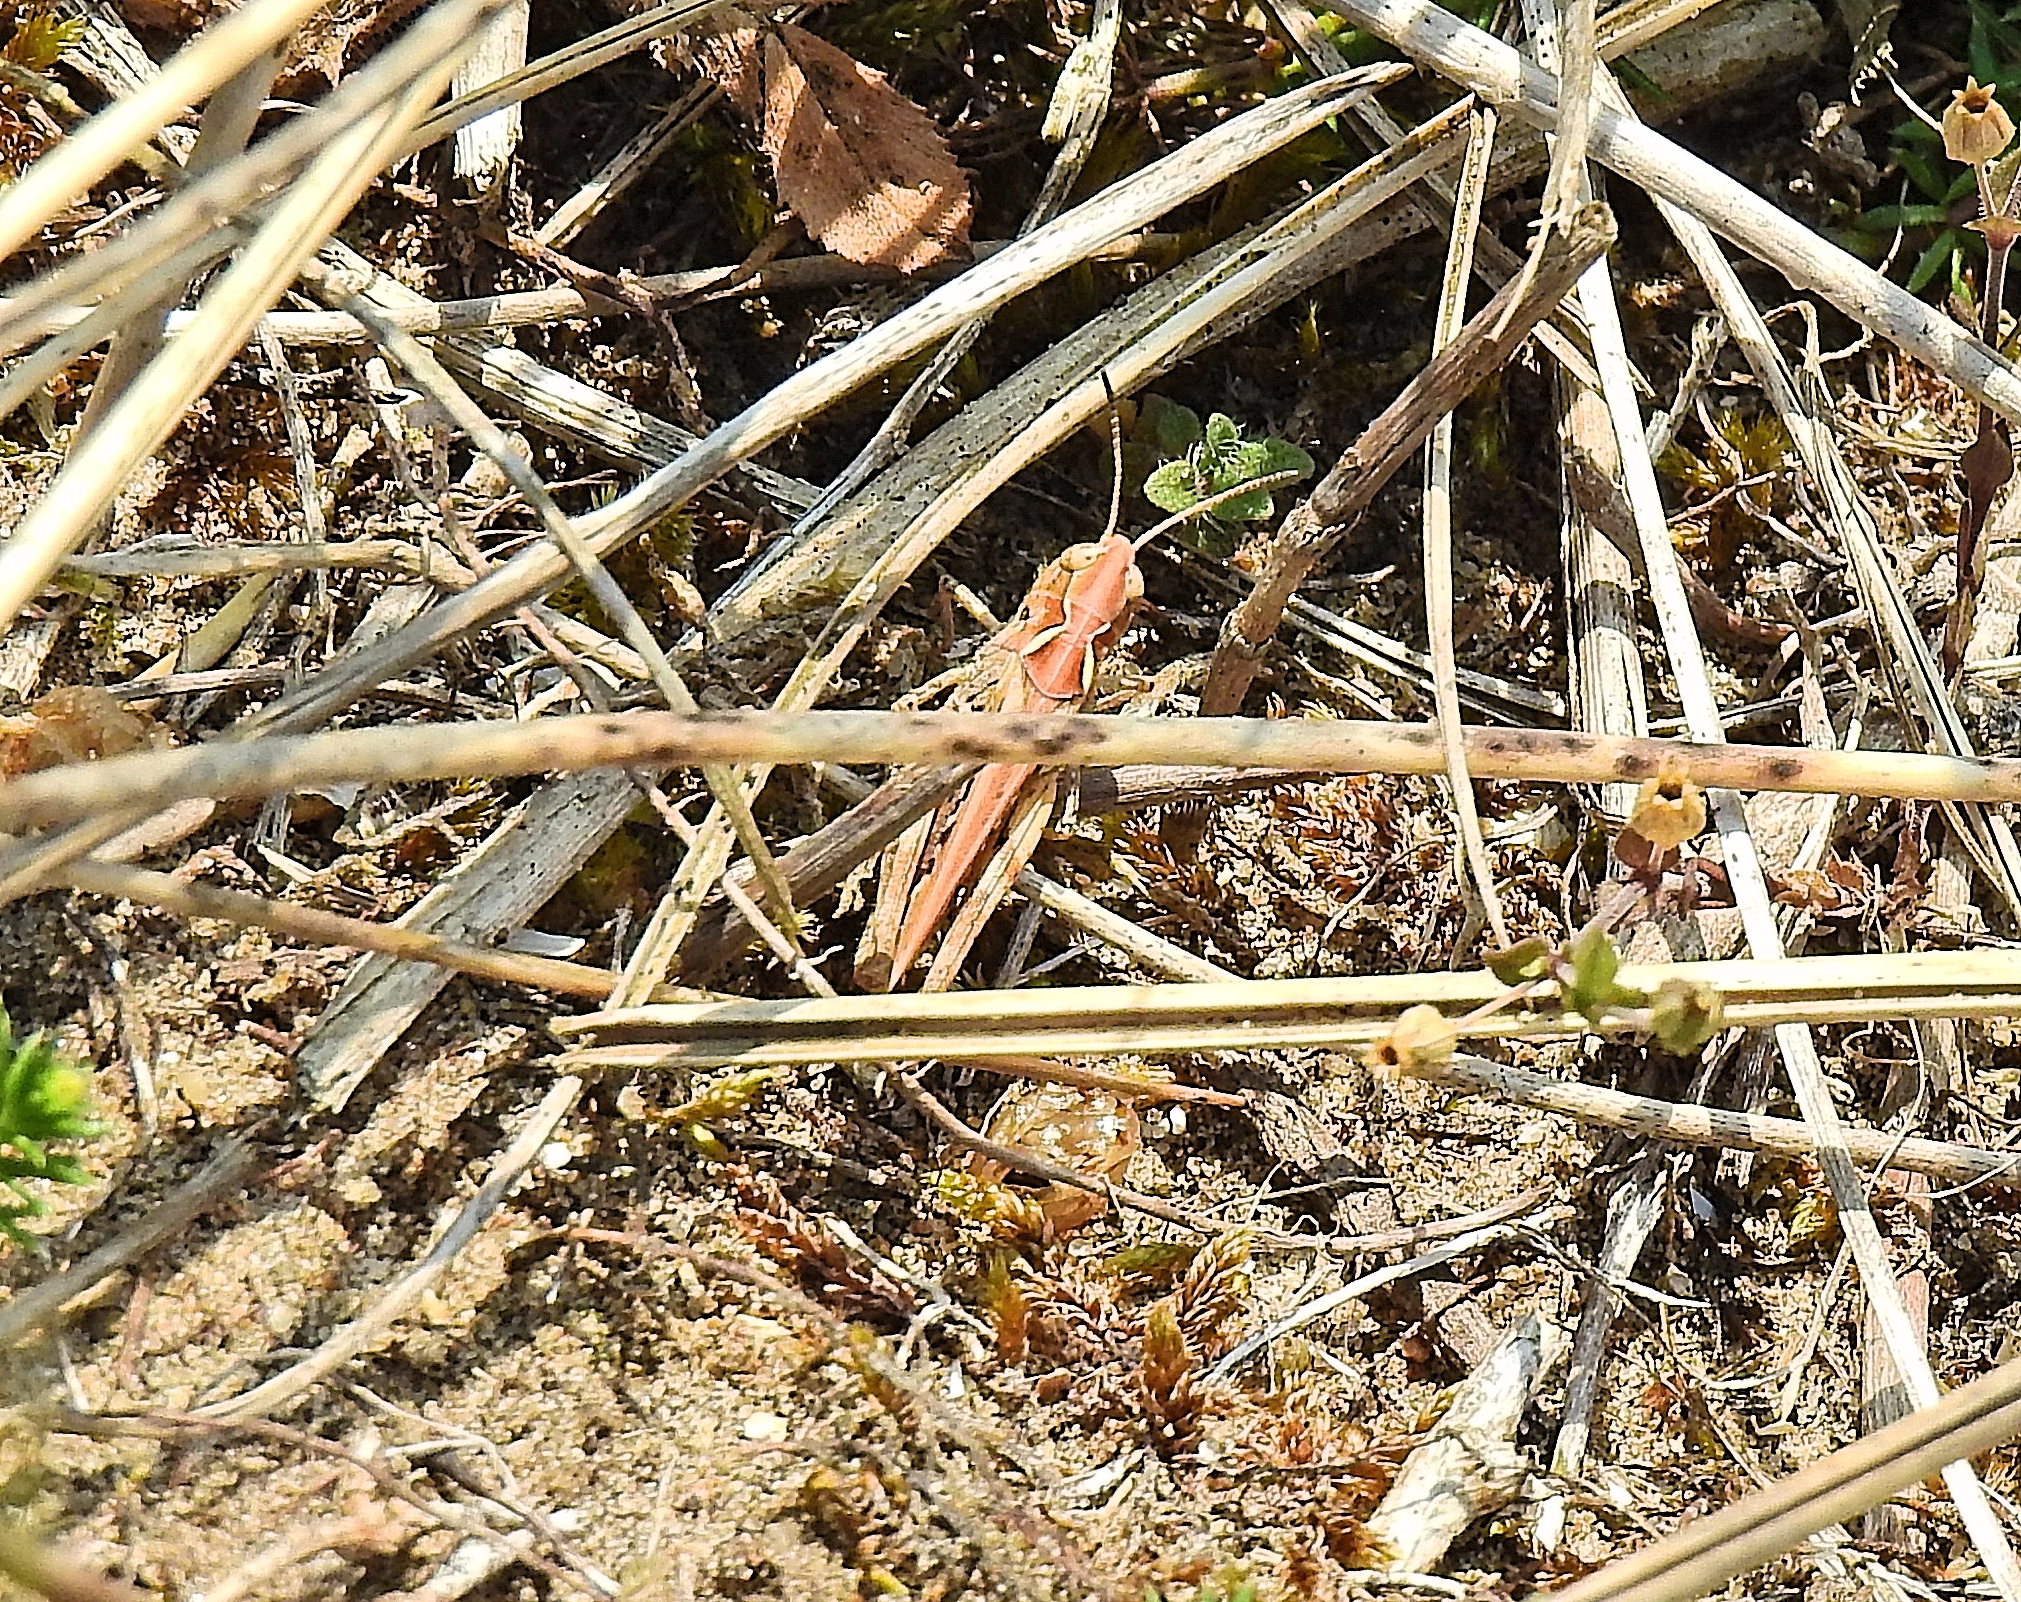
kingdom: Animalia
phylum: Arthropoda
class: Insecta
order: Orthoptera
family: Acrididae
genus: Myrmeleotettix
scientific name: Myrmeleotettix maculatus
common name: Mottled grasshopper
